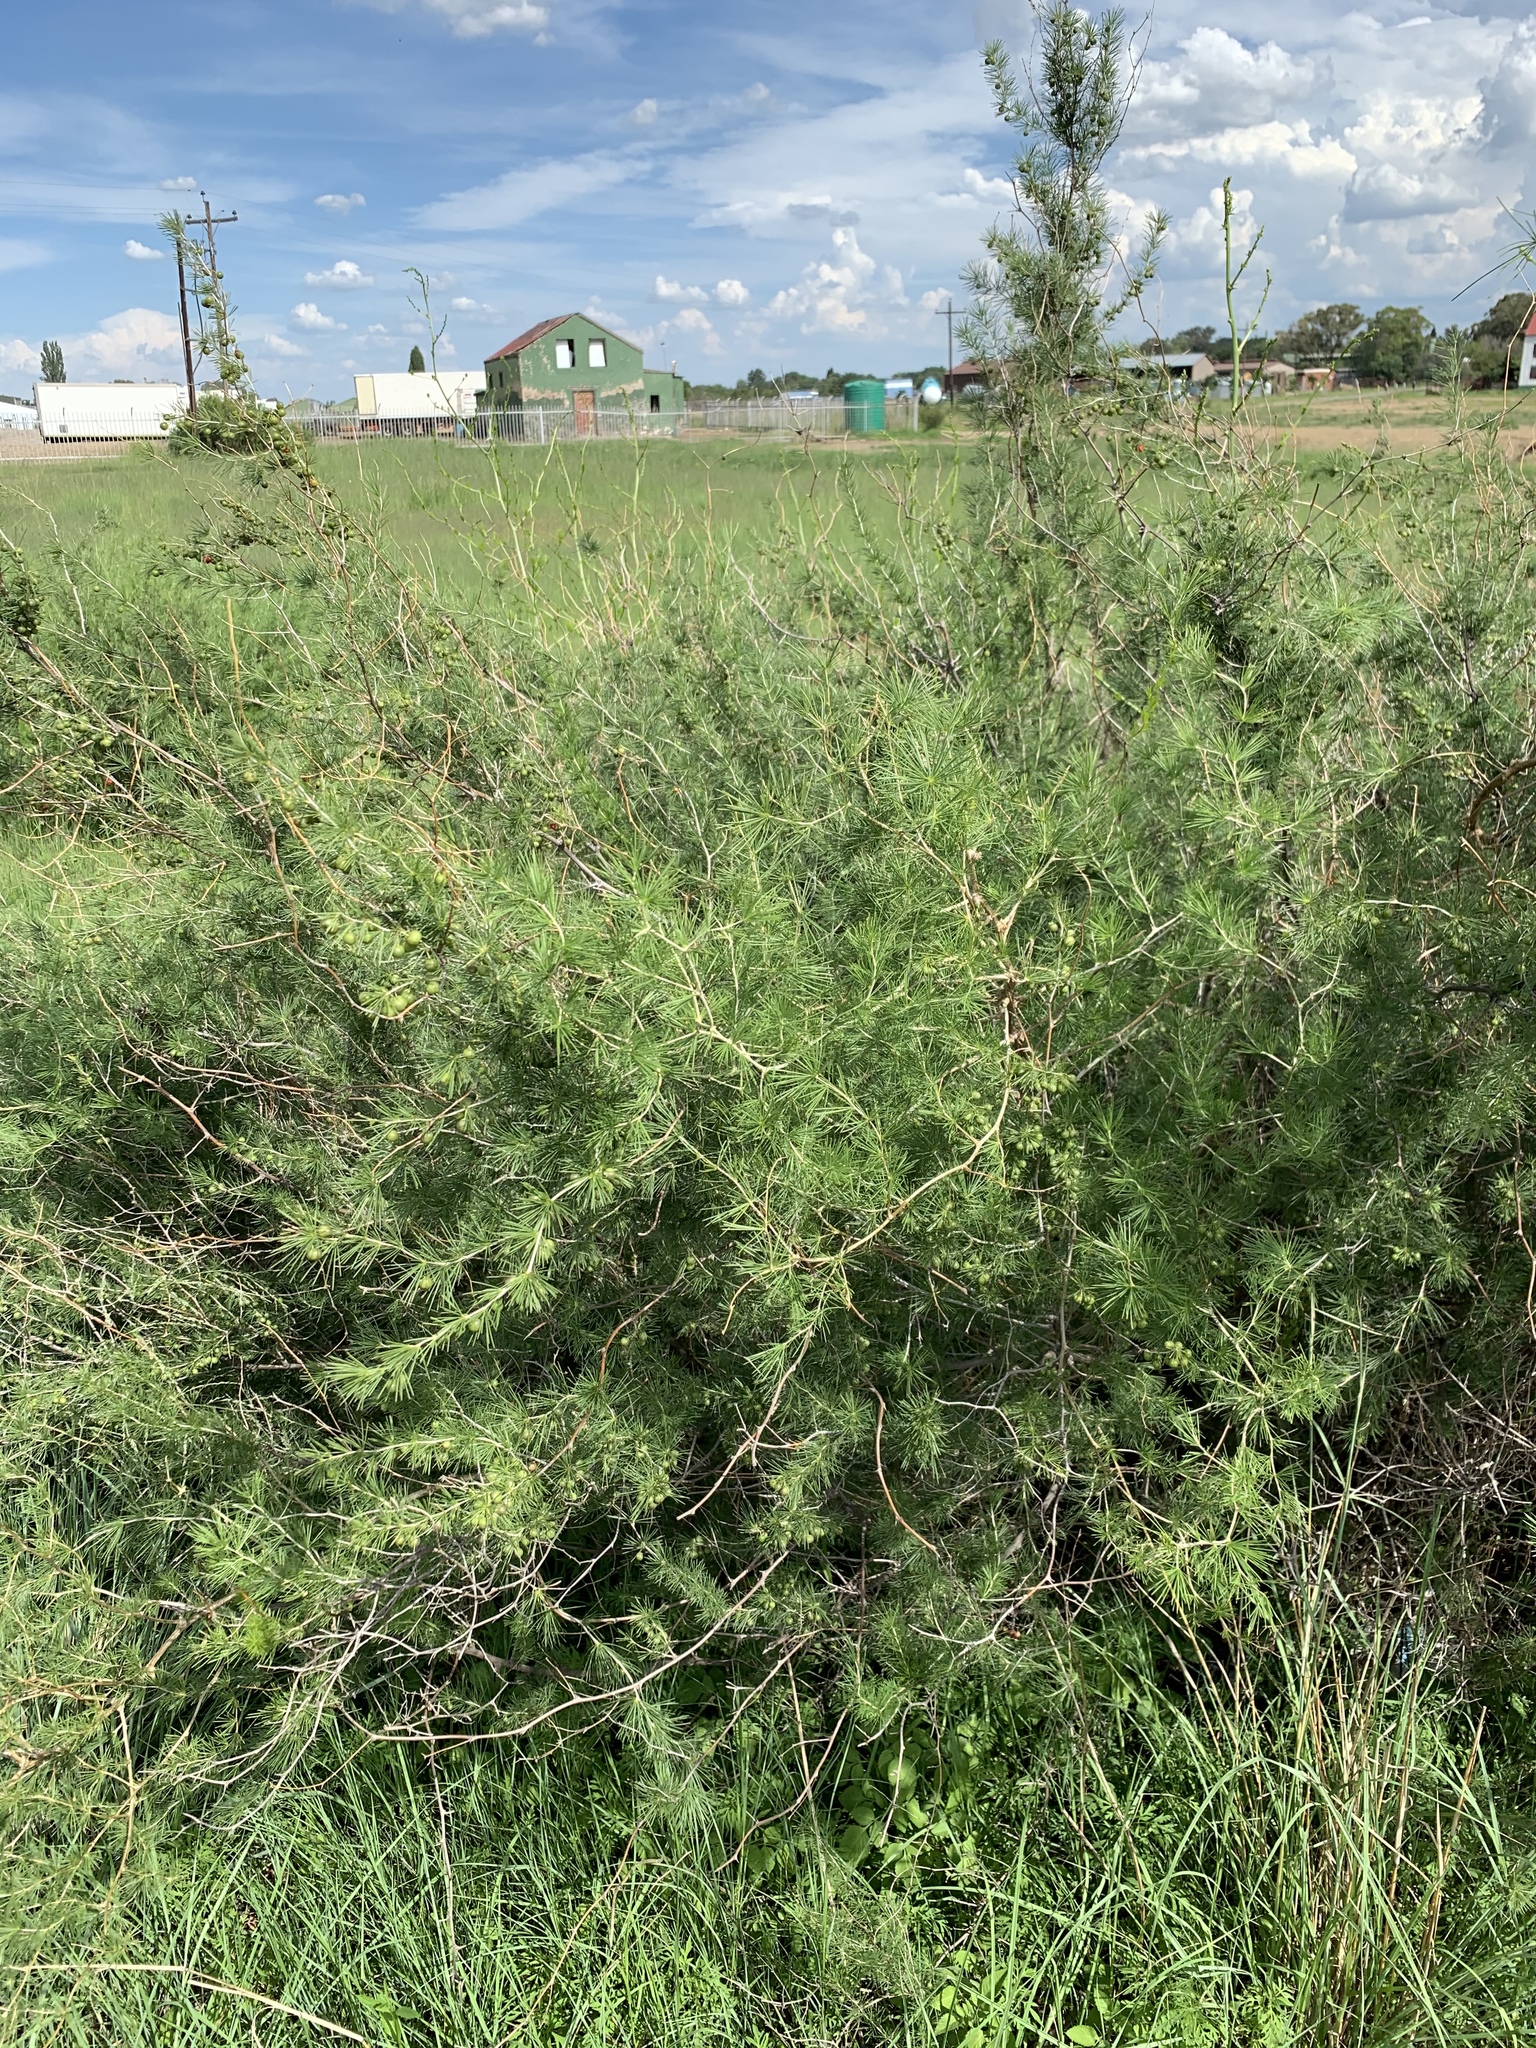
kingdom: Plantae
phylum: Tracheophyta
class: Liliopsida
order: Asparagales
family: Asparagaceae
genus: Asparagus
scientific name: Asparagus laricinus
